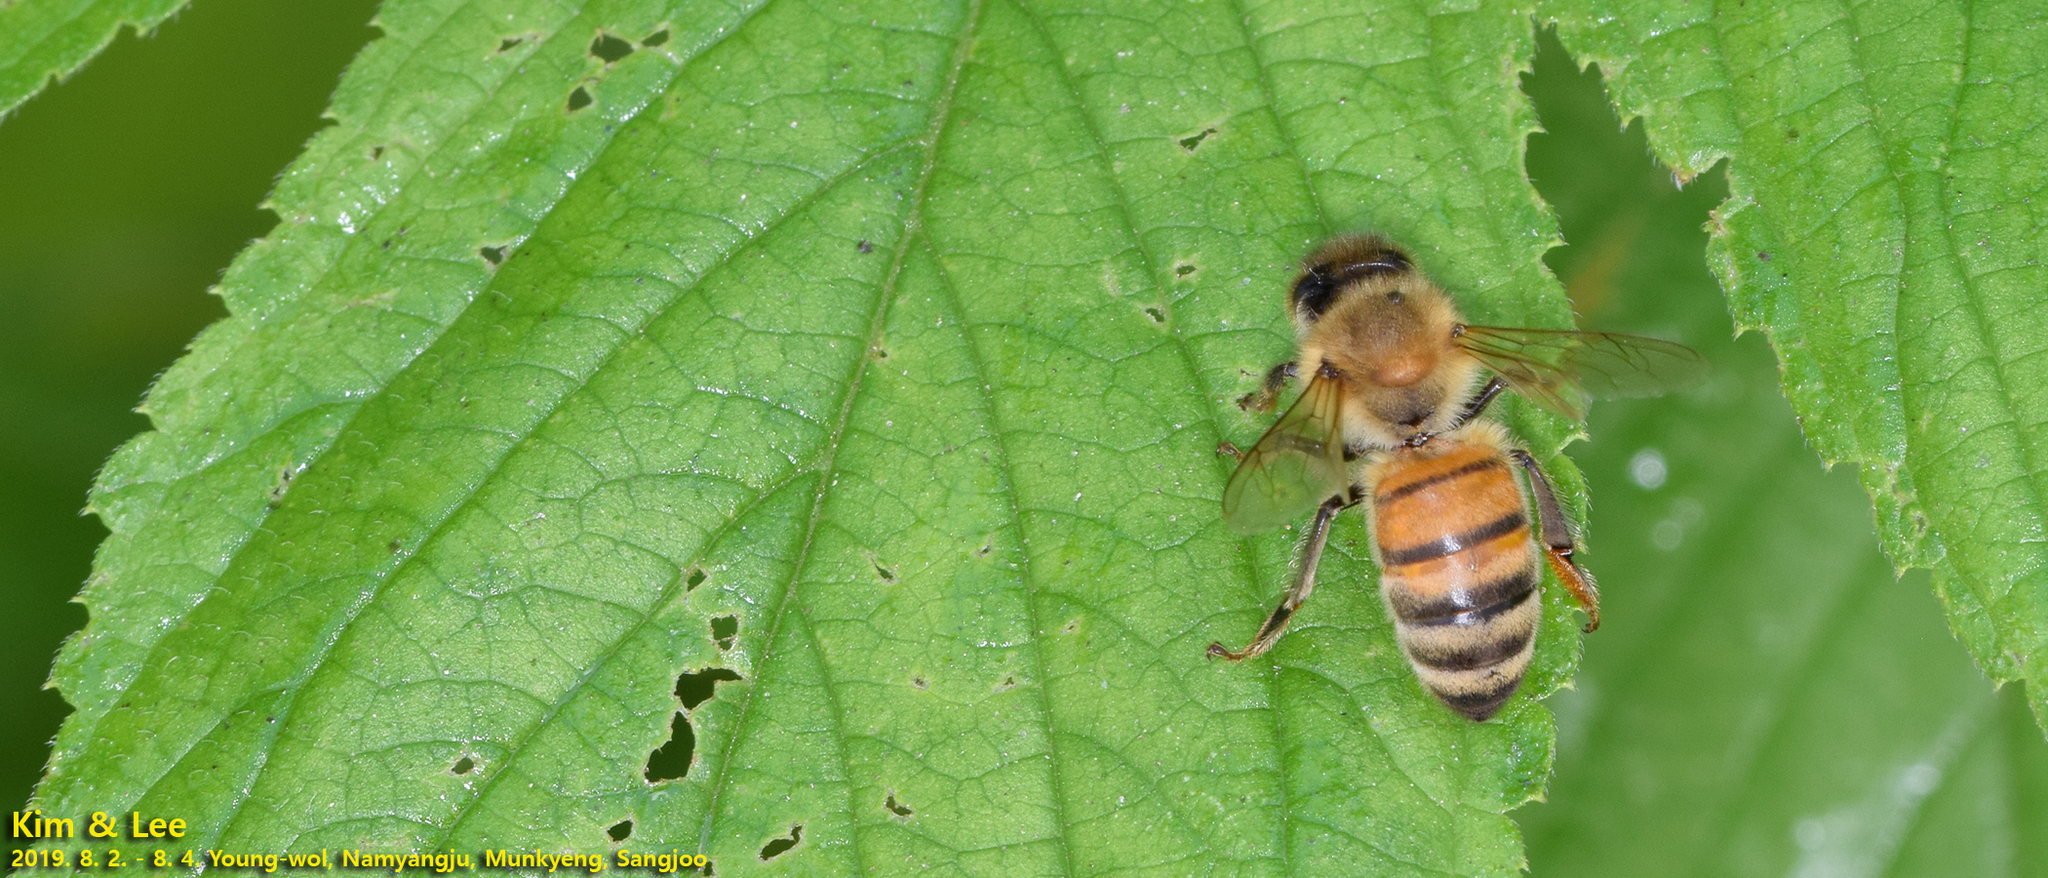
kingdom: Animalia
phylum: Arthropoda
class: Insecta
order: Hymenoptera
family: Apidae
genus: Apis
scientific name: Apis mellifera
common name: Honey bee
